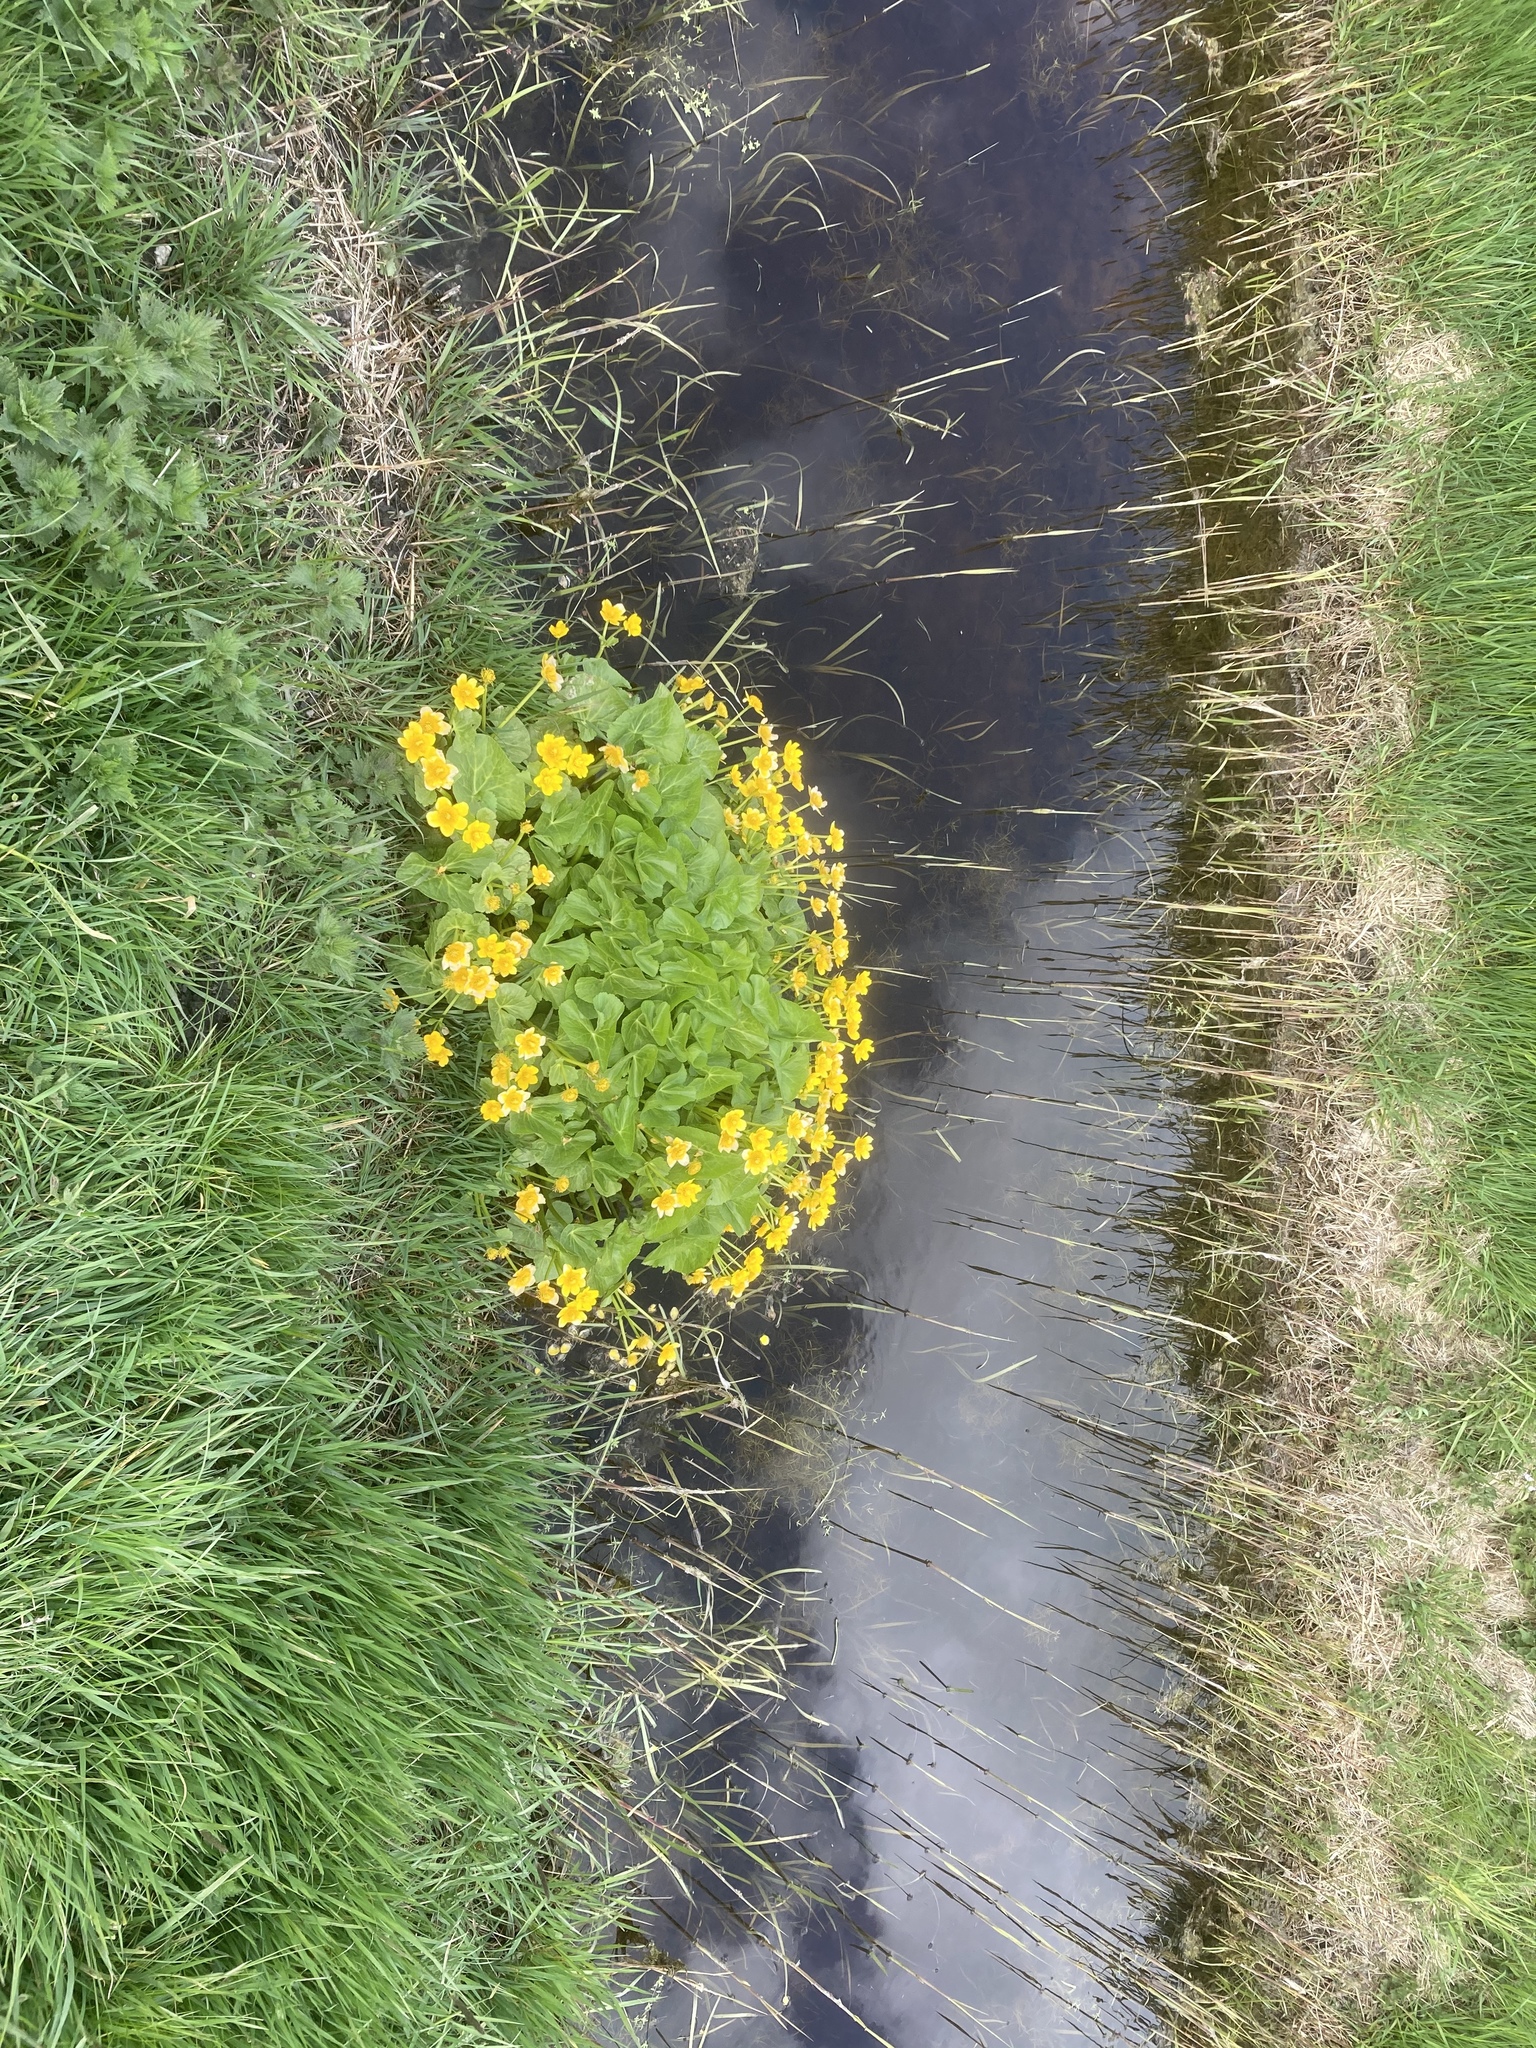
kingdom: Plantae
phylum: Tracheophyta
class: Magnoliopsida
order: Ranunculales
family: Ranunculaceae
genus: Caltha
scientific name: Caltha palustris
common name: Marsh marigold
